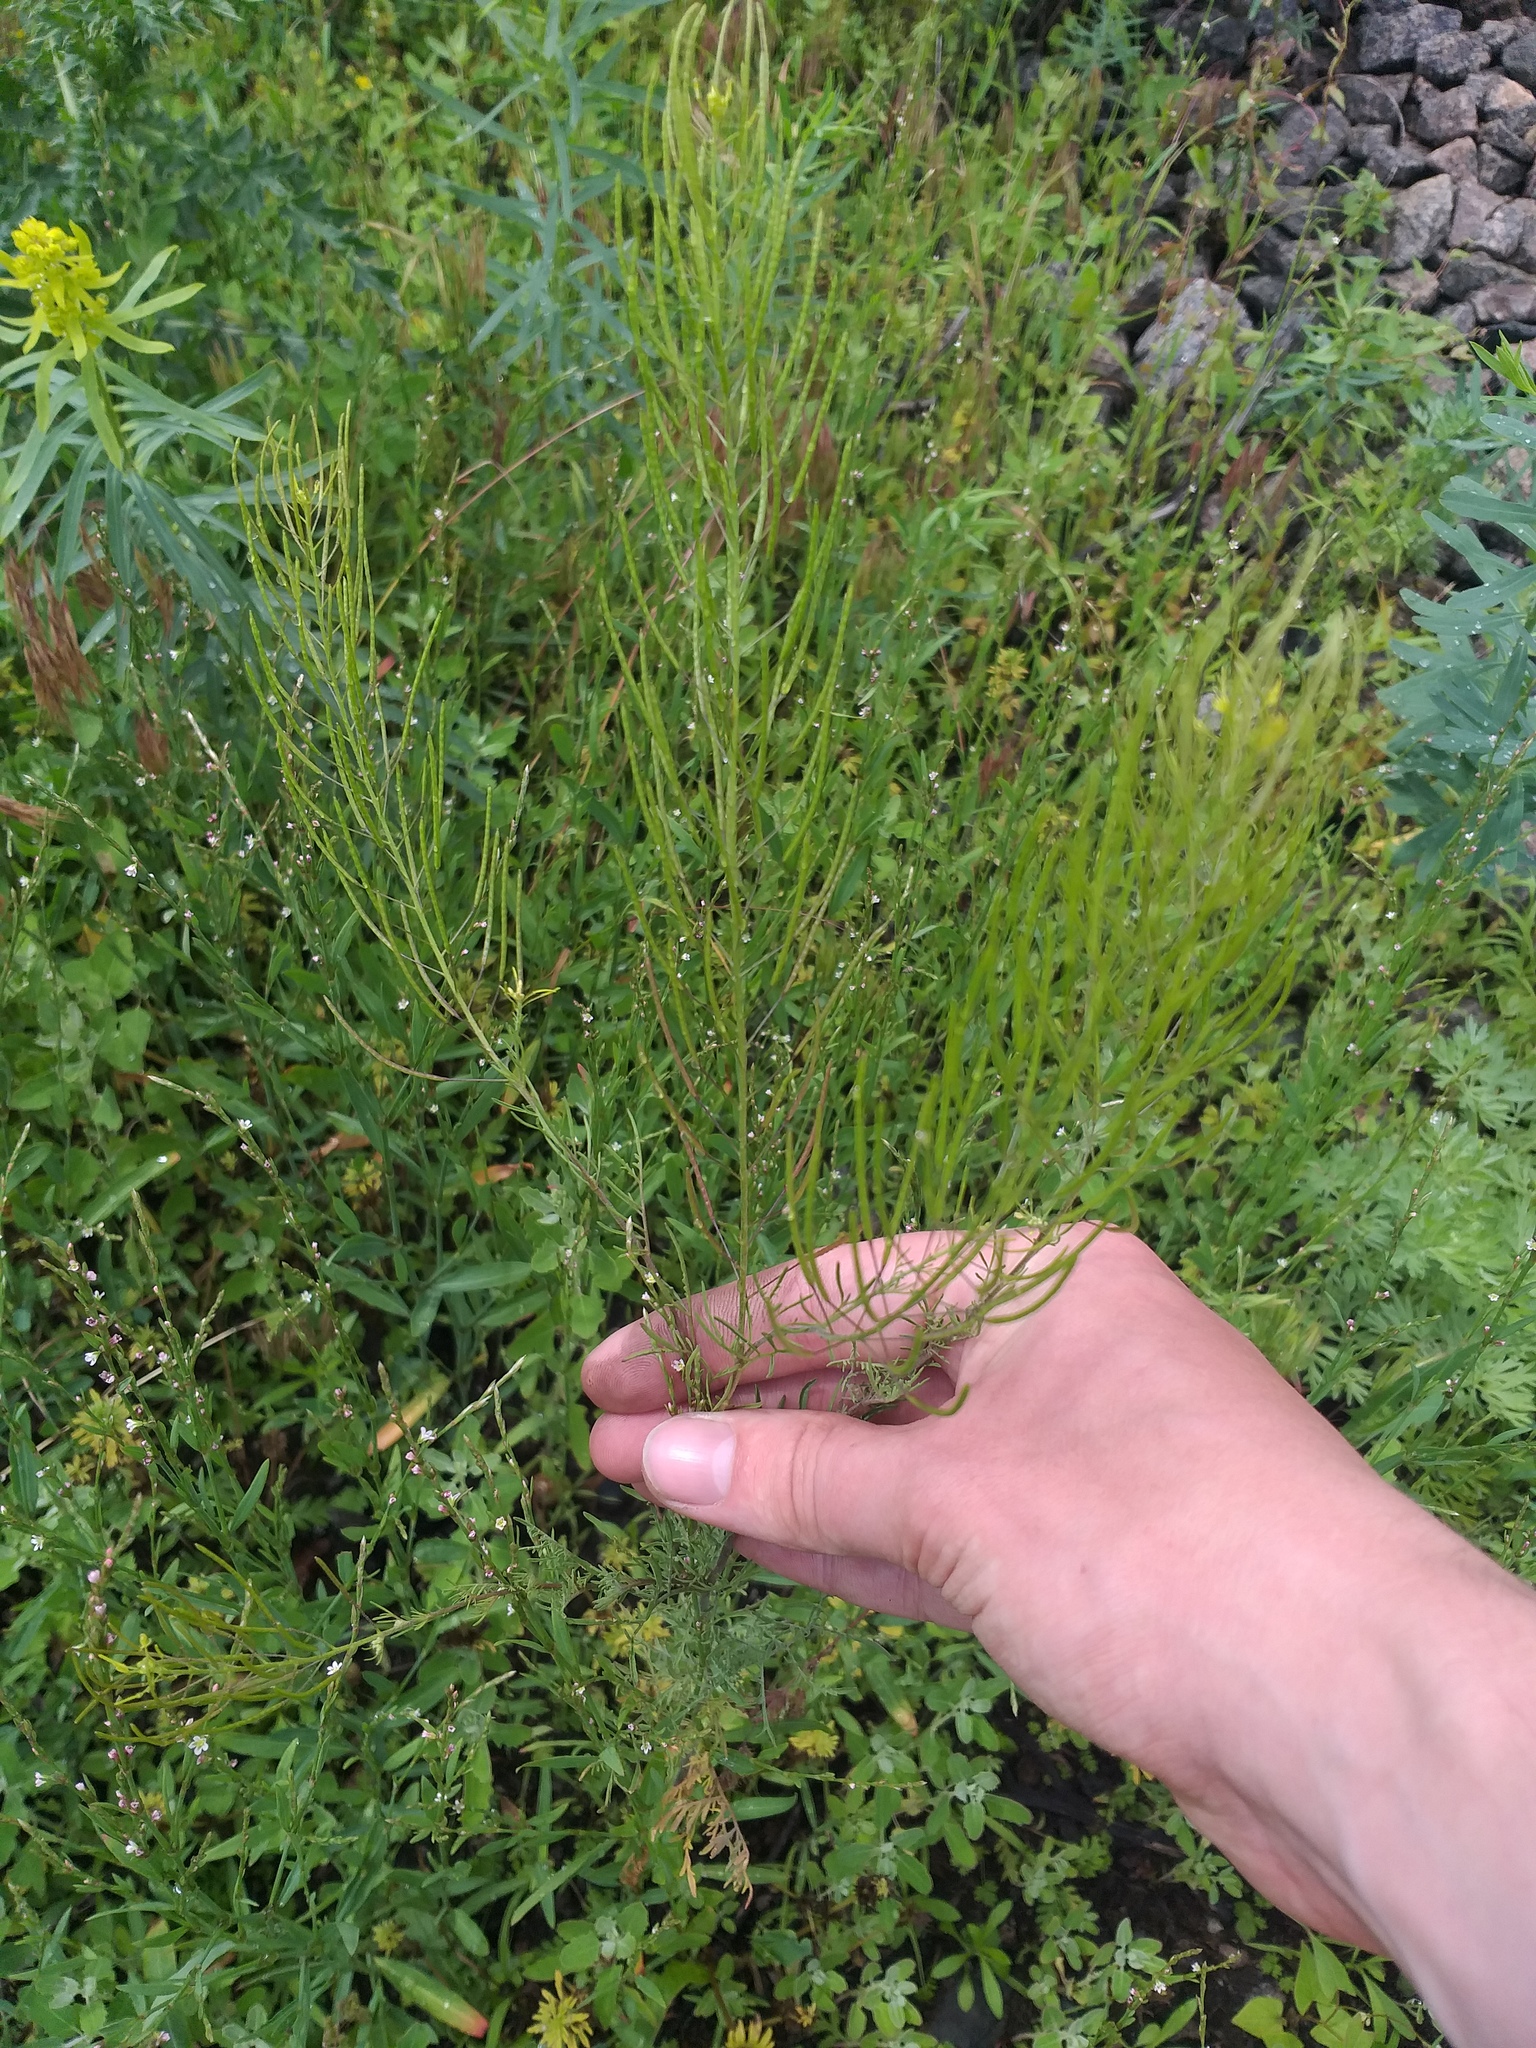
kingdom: Plantae
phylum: Tracheophyta
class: Magnoliopsida
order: Brassicales
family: Brassicaceae
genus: Descurainia
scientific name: Descurainia sophia
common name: Flixweed
